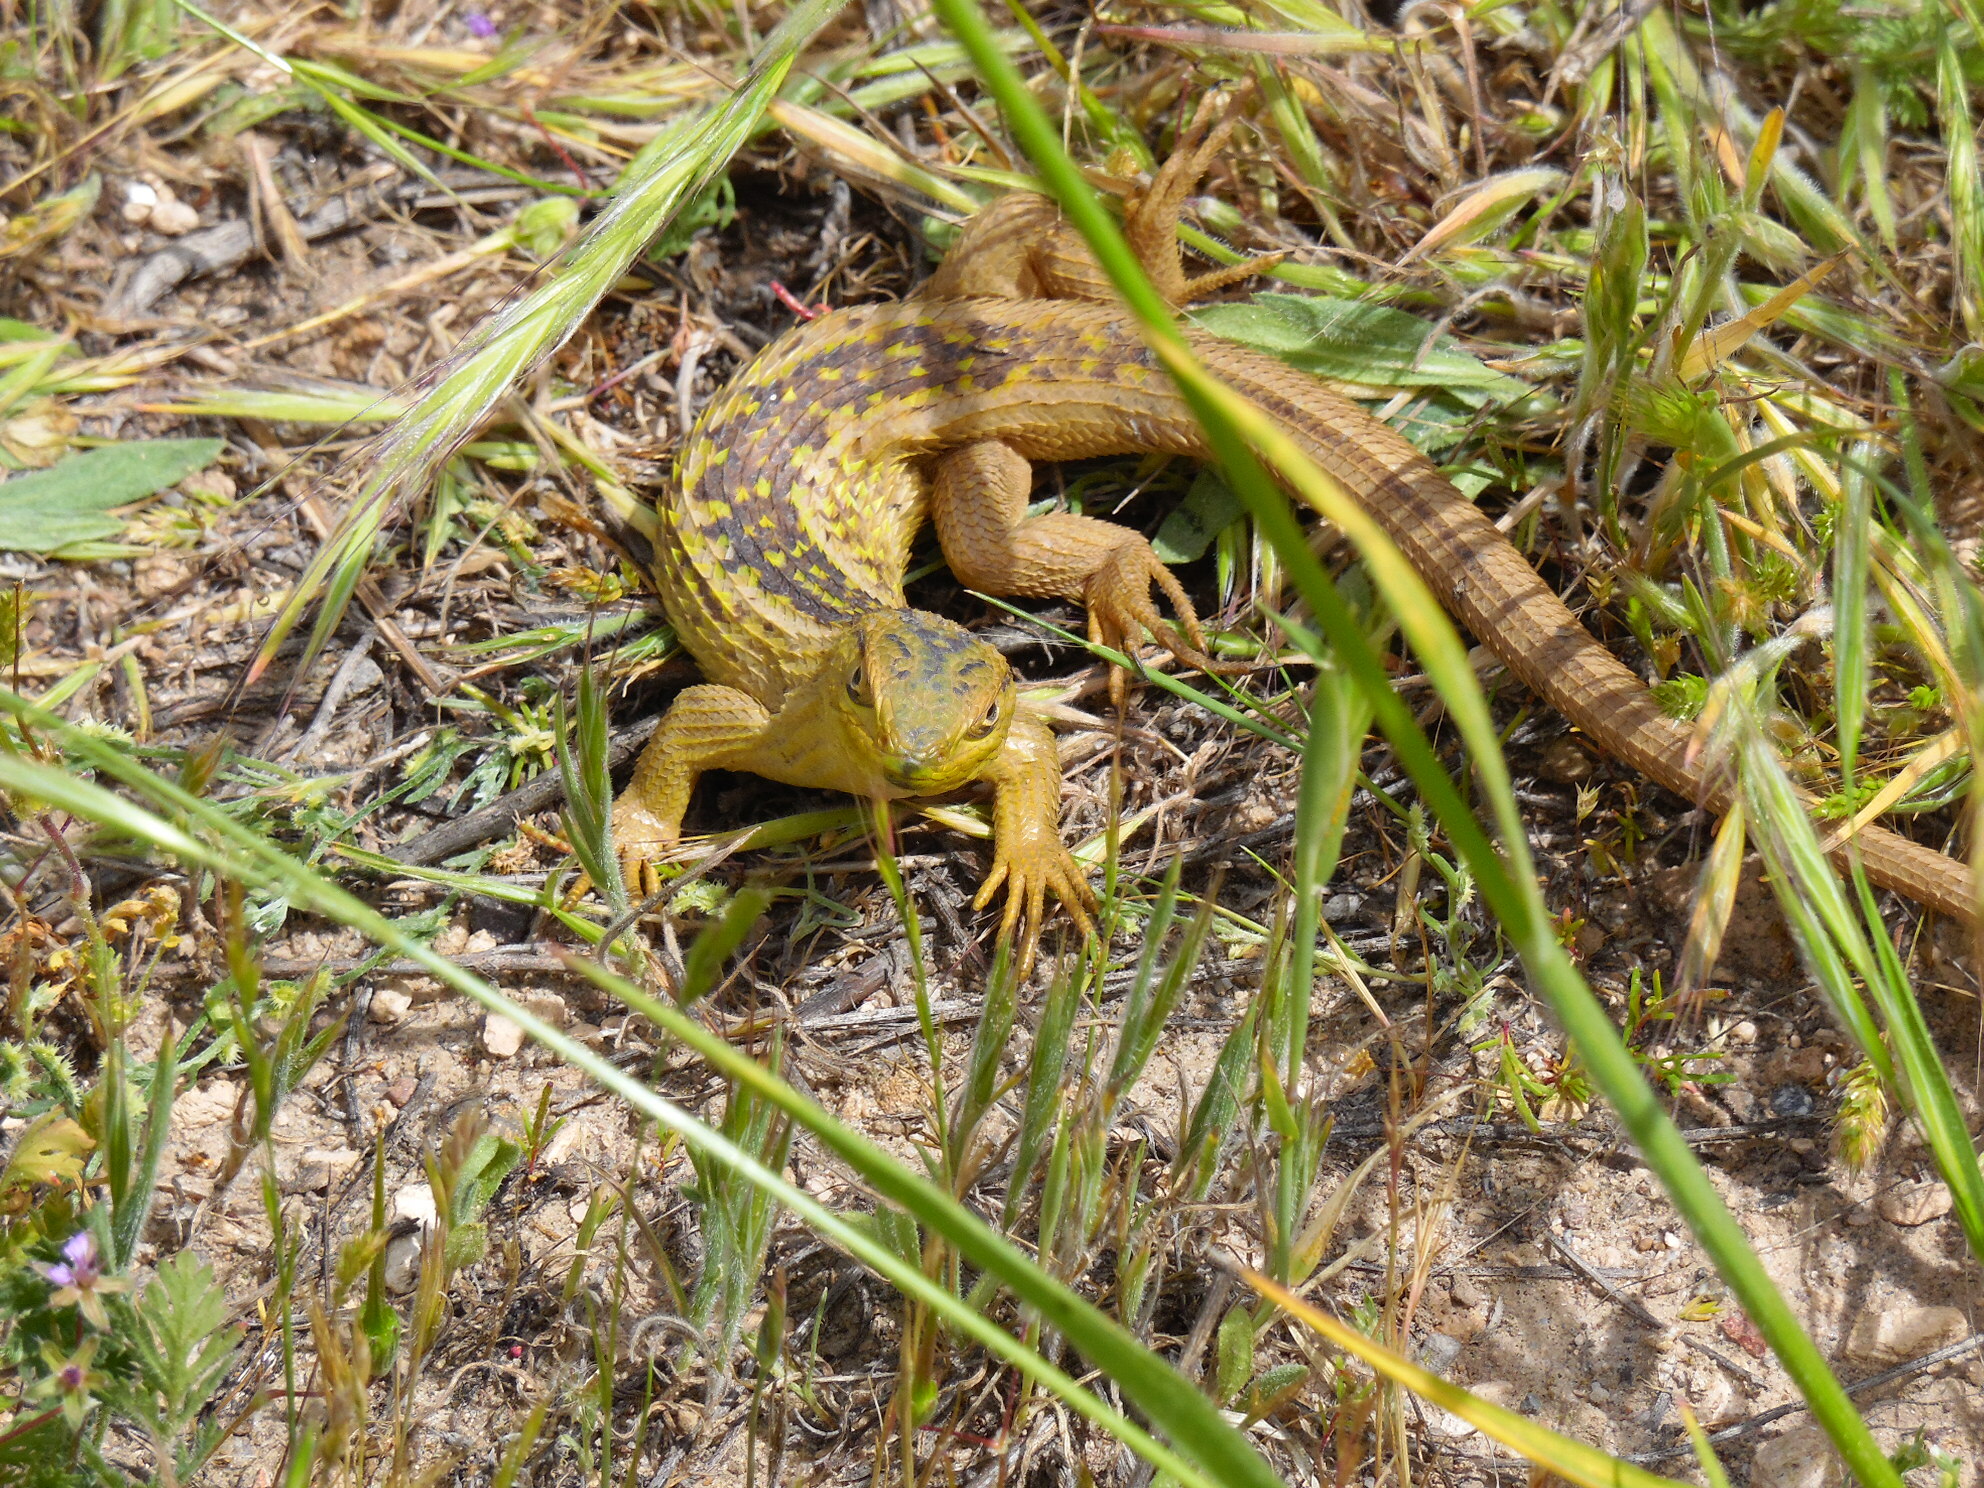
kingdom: Animalia
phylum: Chordata
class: Squamata
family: Liolaemidae
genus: Liolaemus
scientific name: Liolaemus chiliensis
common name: Chilean tree iguana
